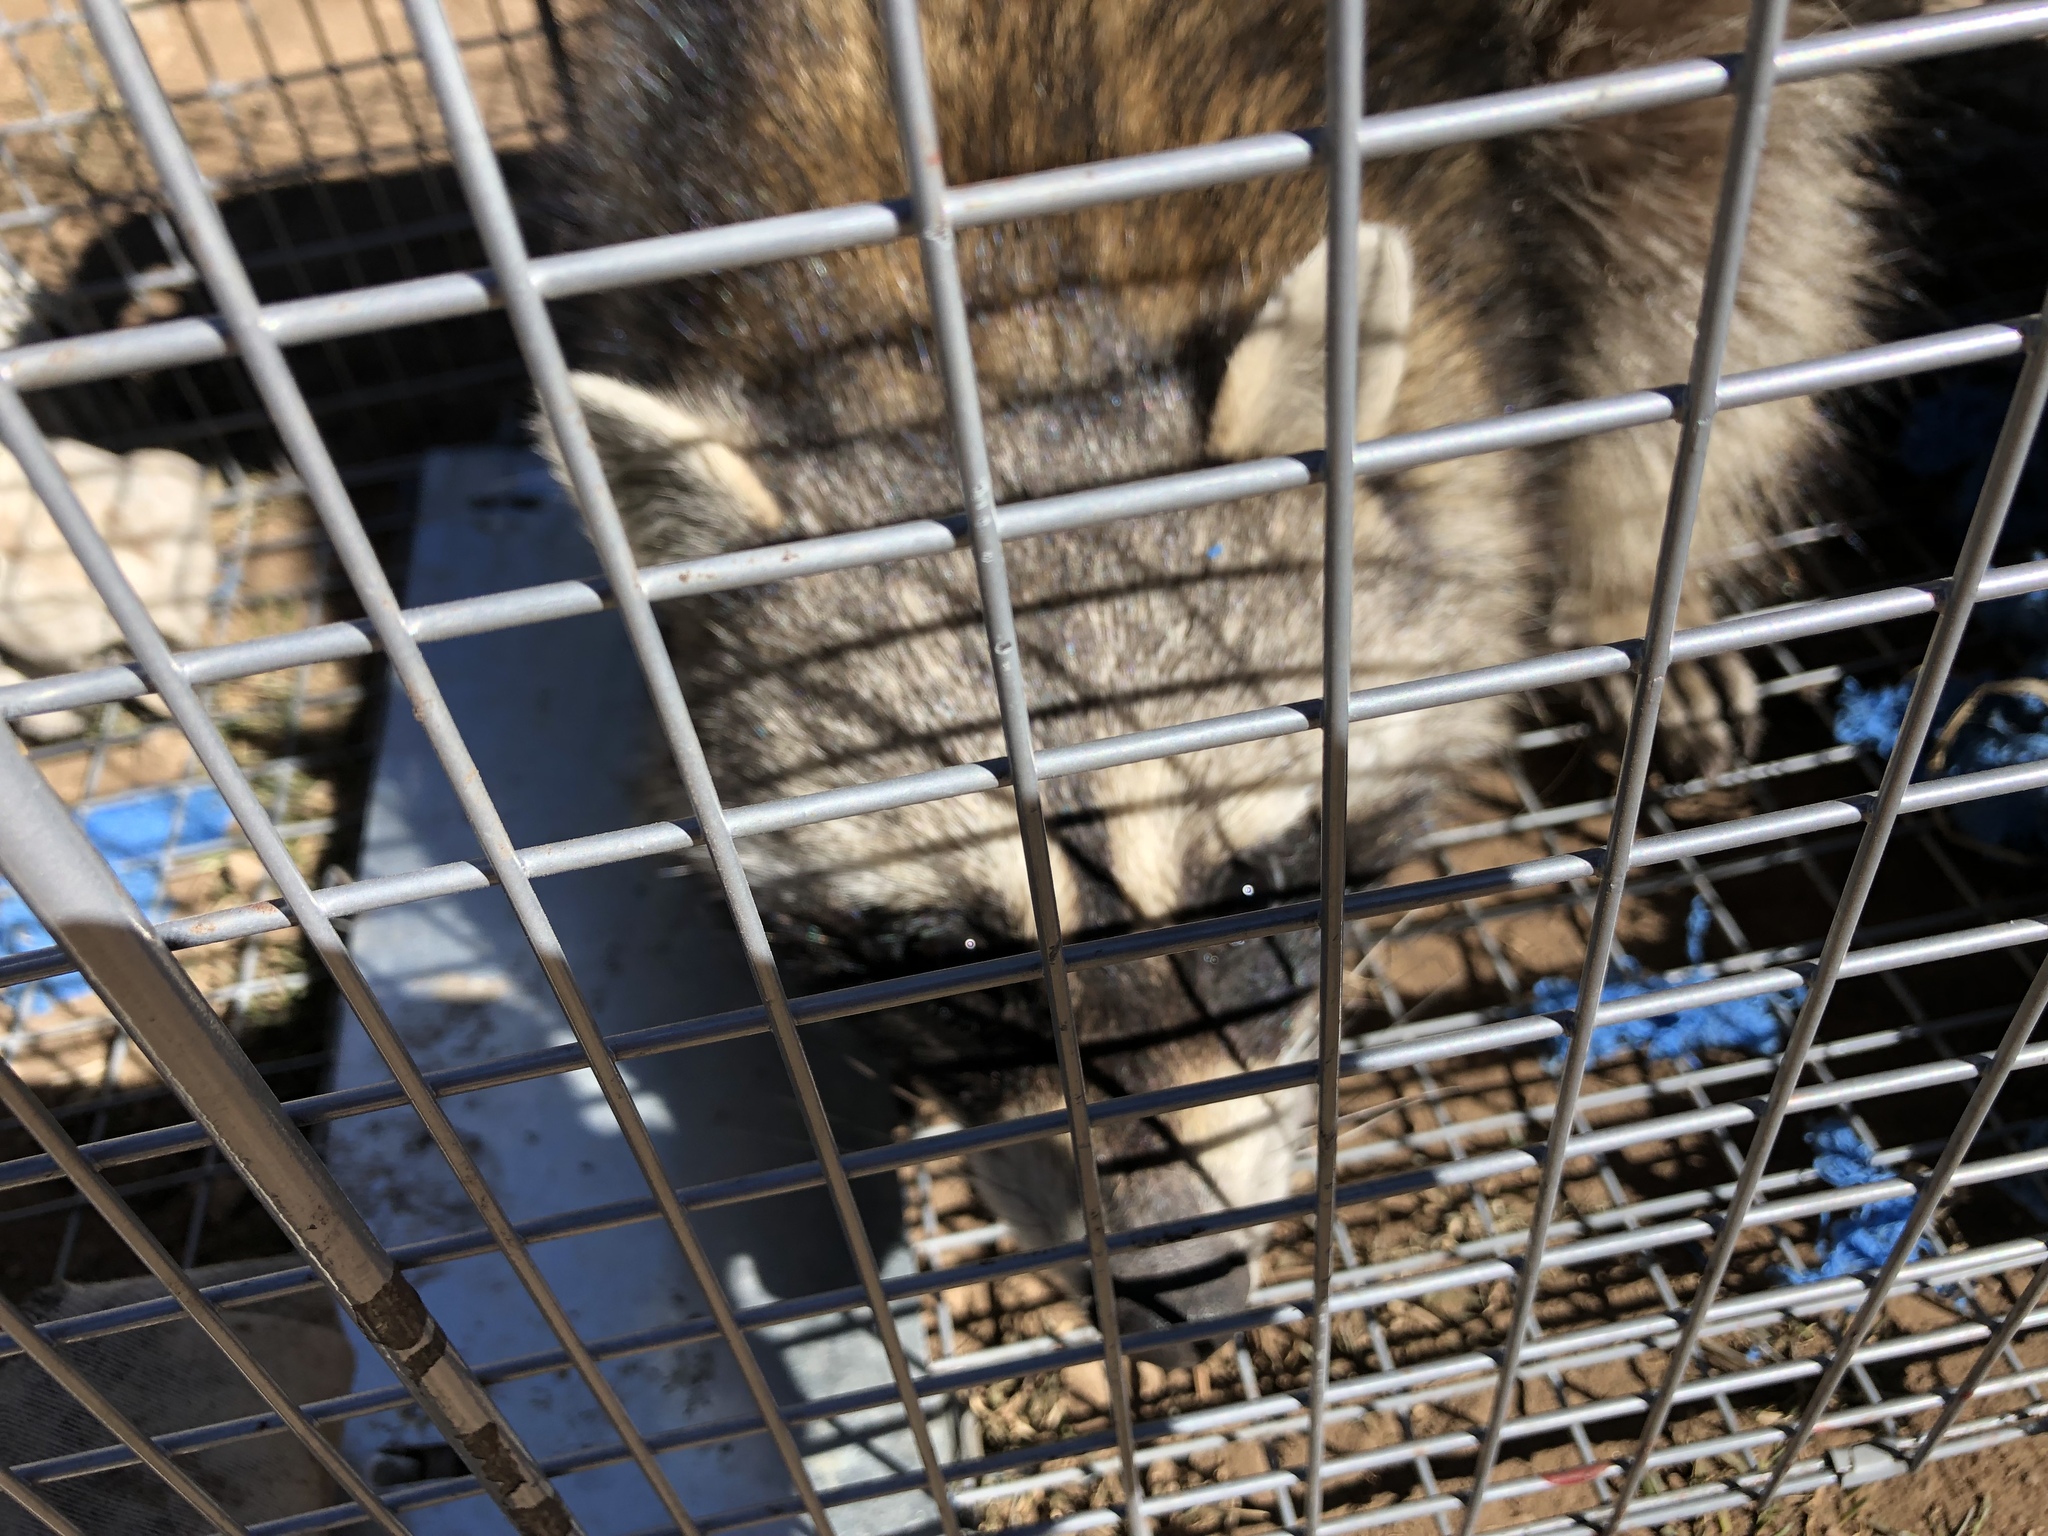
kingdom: Animalia
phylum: Chordata
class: Mammalia
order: Carnivora
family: Procyonidae
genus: Procyon
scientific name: Procyon lotor
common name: Raccoon
